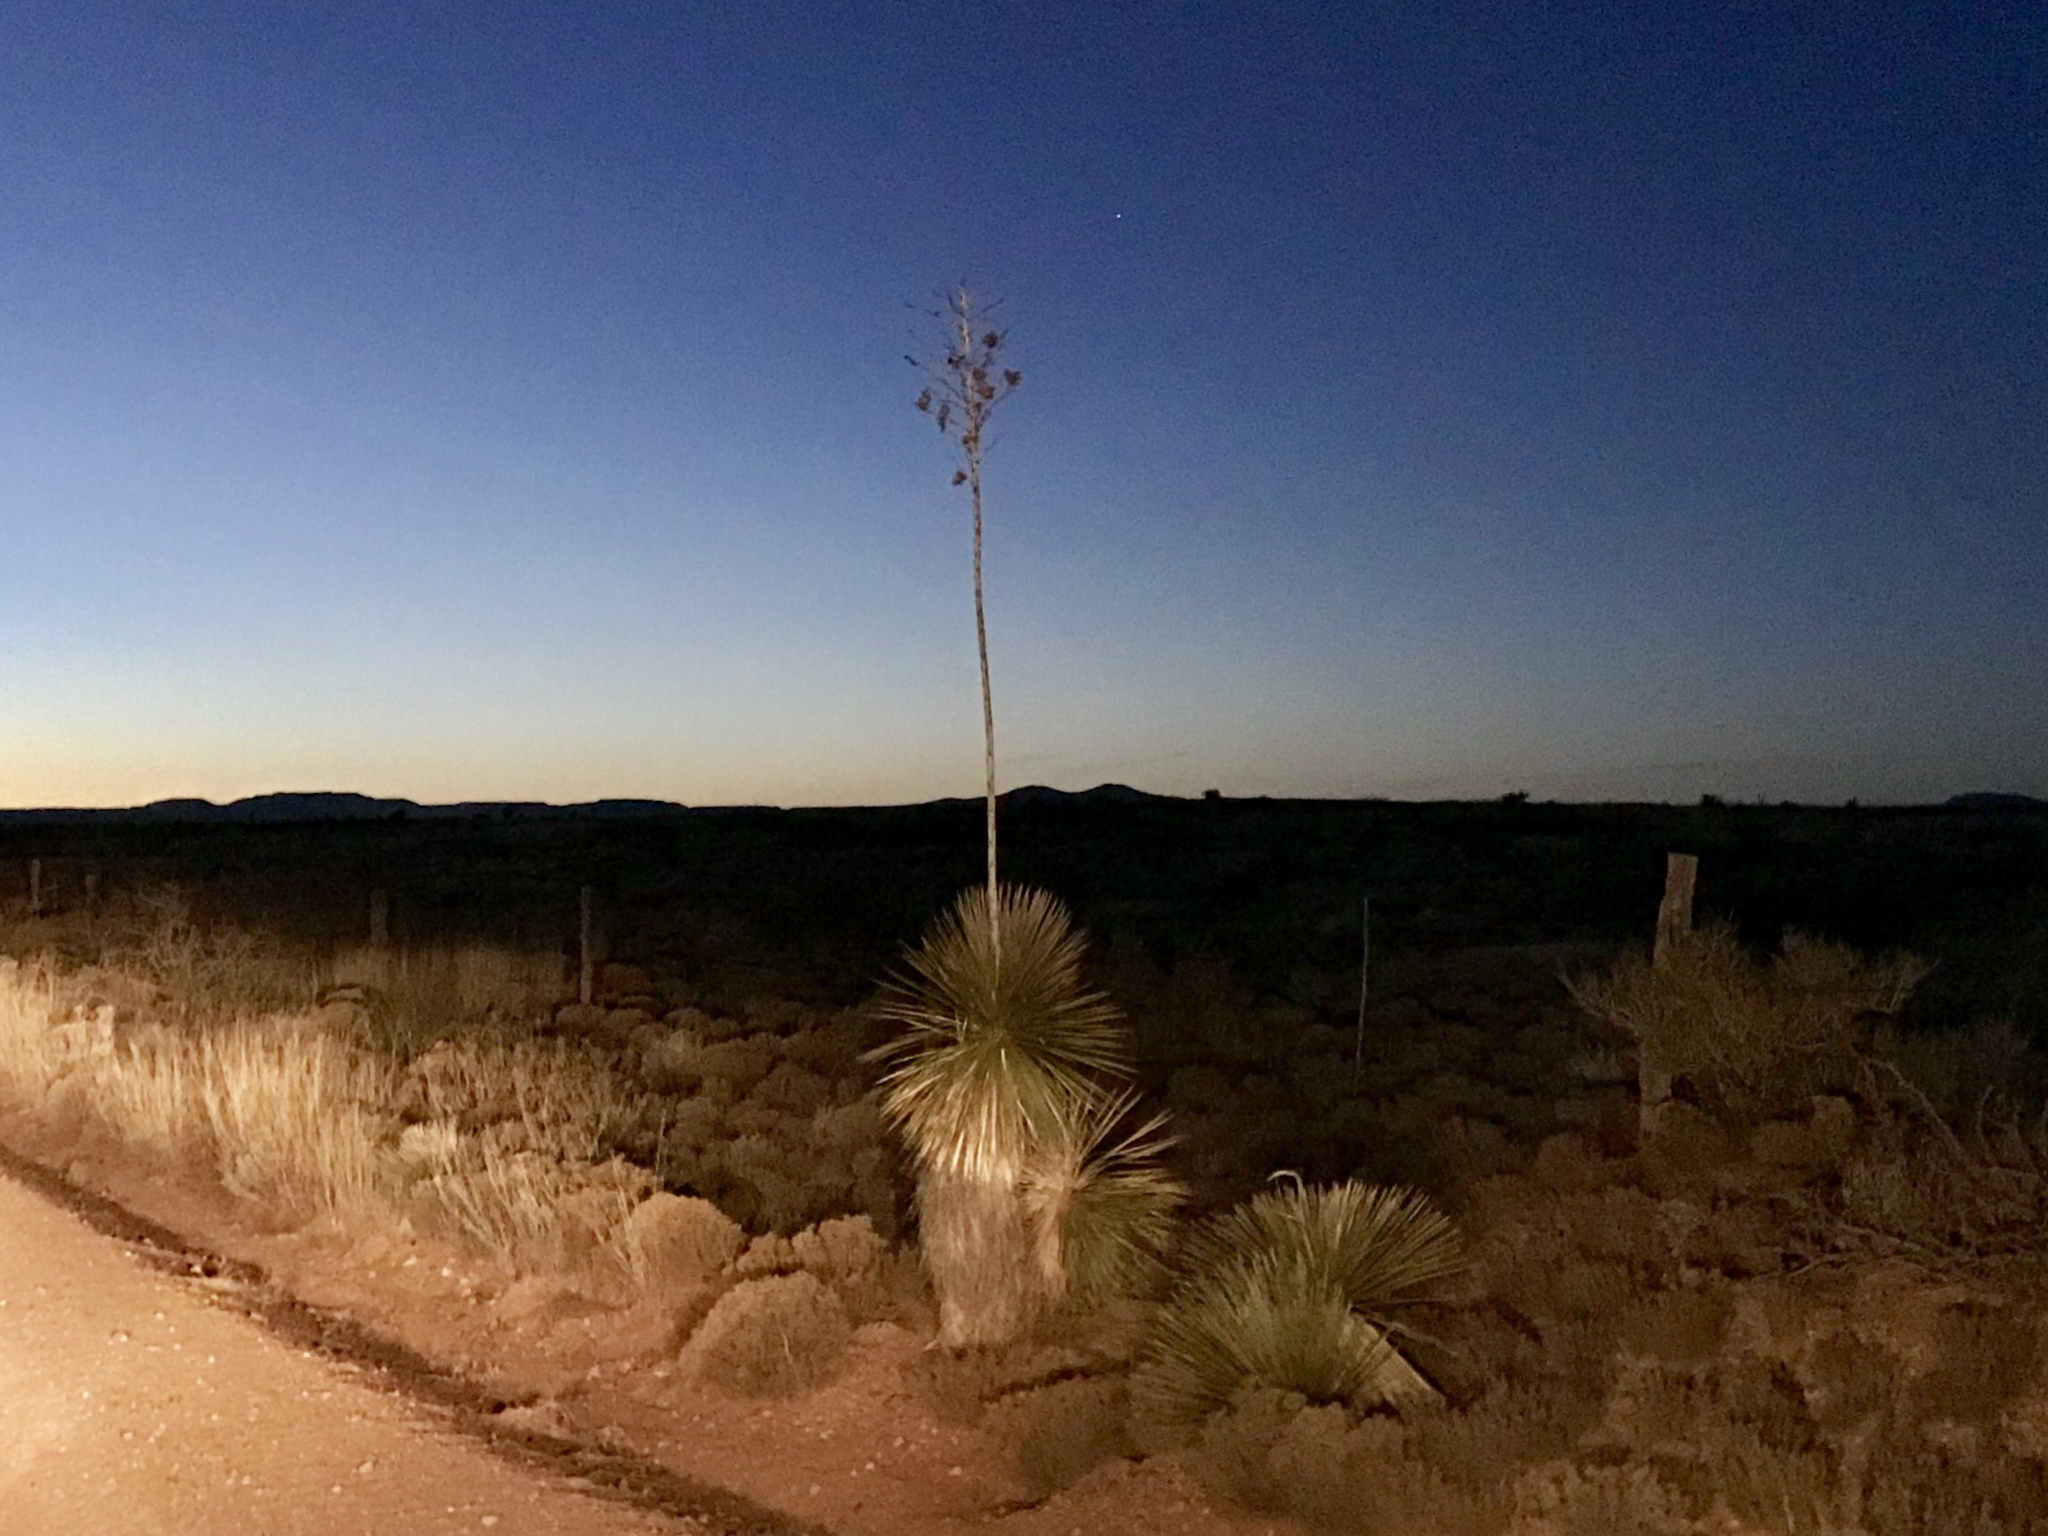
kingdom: Plantae
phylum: Tracheophyta
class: Liliopsida
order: Asparagales
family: Asparagaceae
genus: Yucca
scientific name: Yucca elata
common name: Palmella
